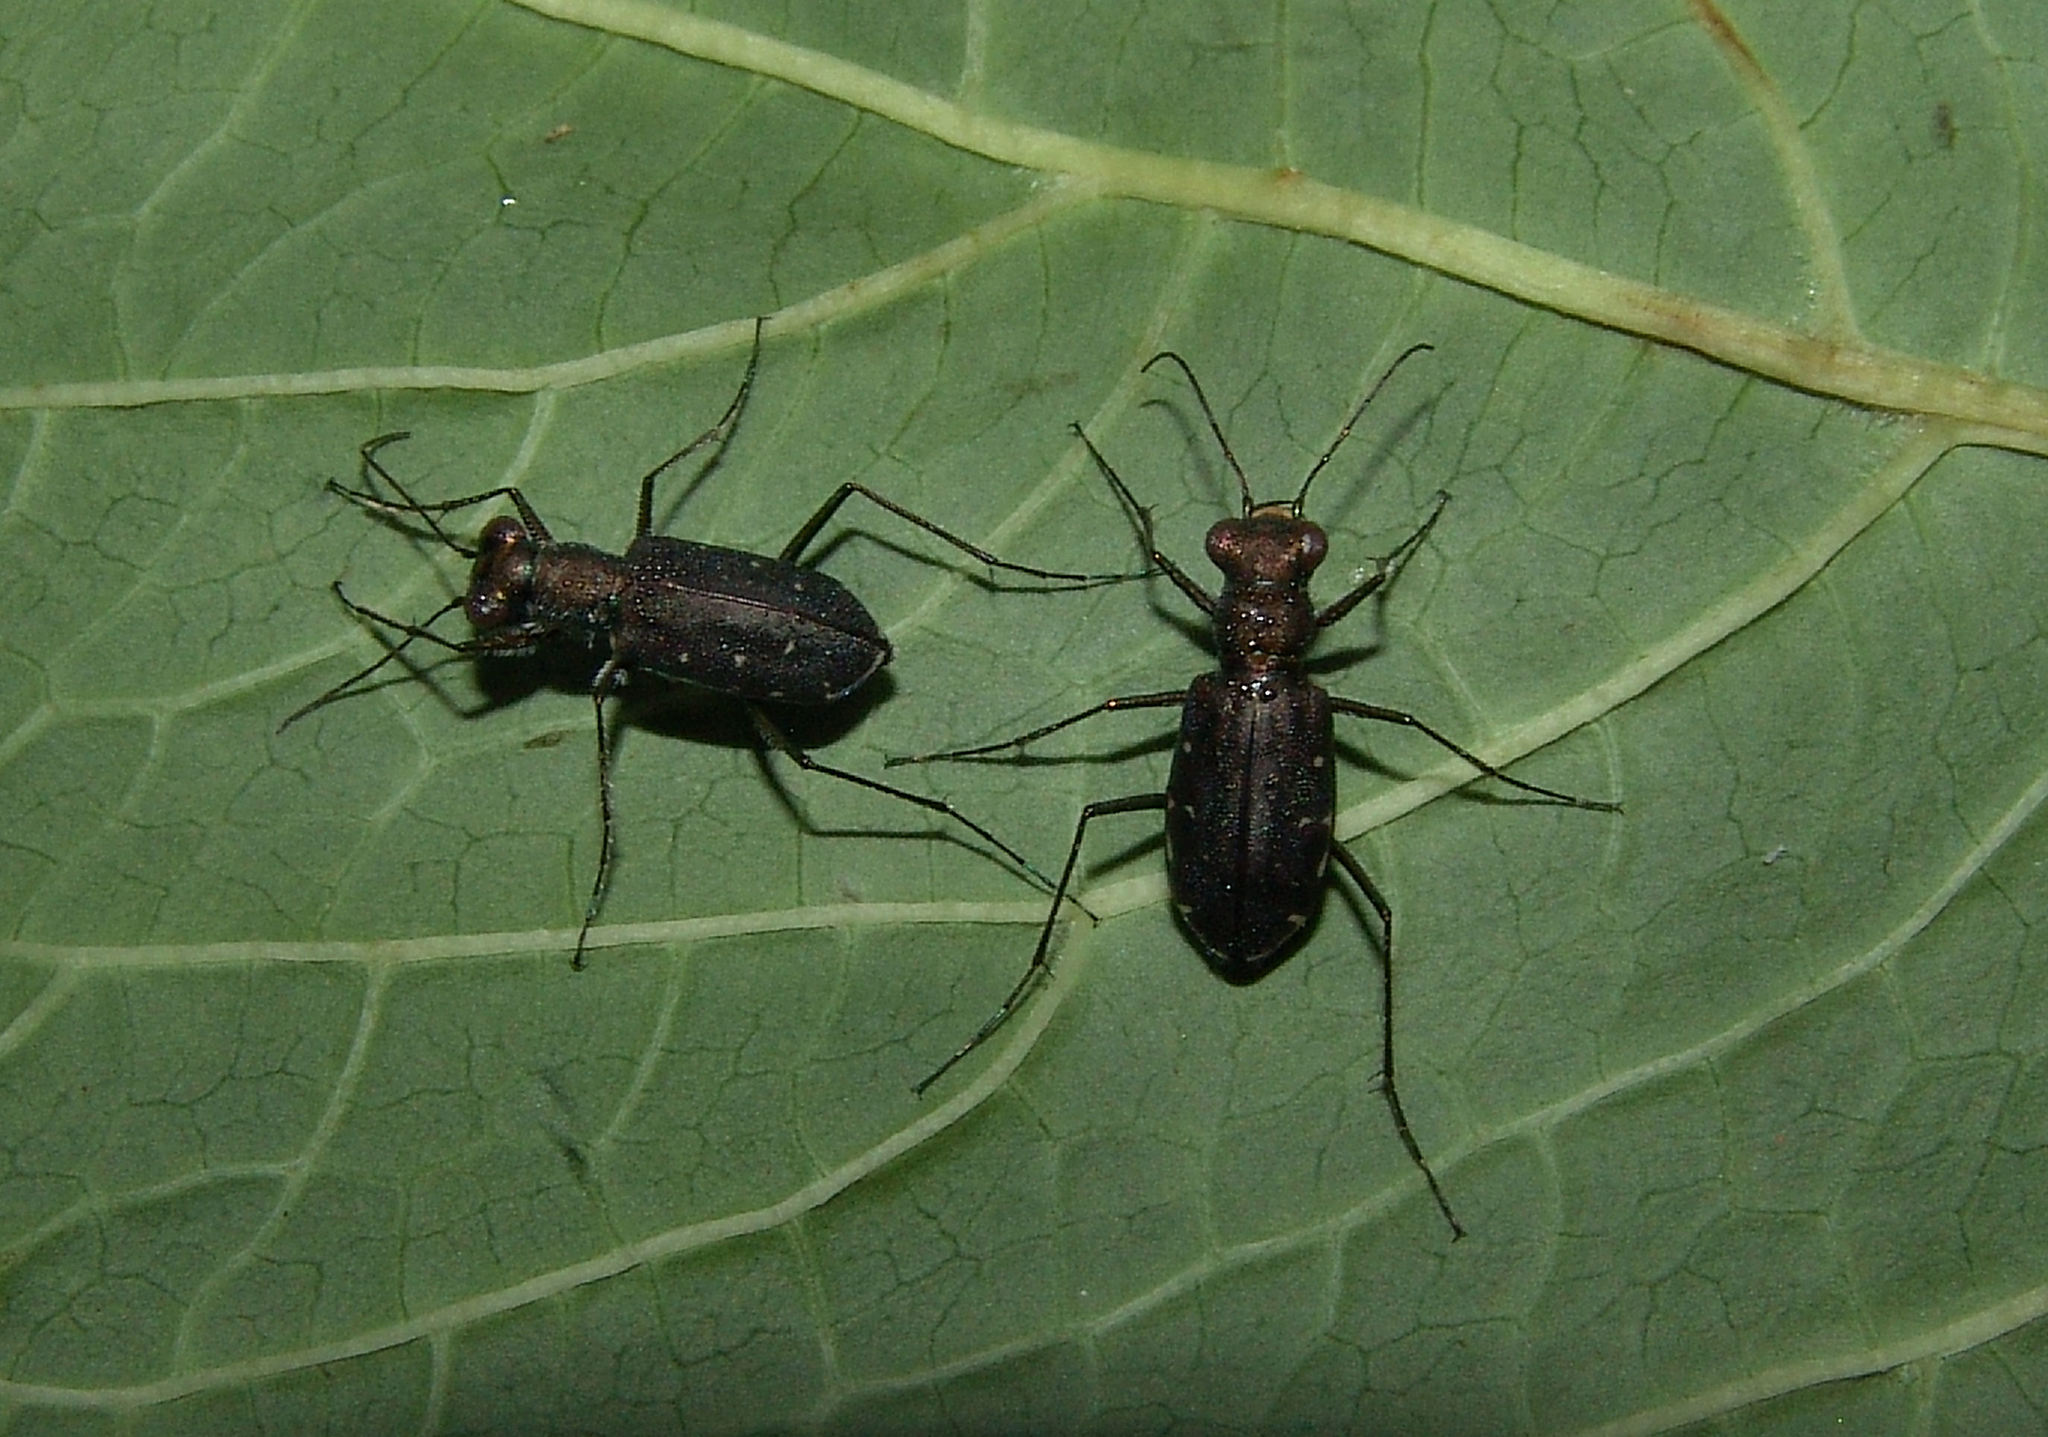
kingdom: Animalia
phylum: Arthropoda
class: Insecta
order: Coleoptera
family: Carabidae
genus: Cicindela
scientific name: Cicindela punctulata
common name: Punctured tiger beetle
